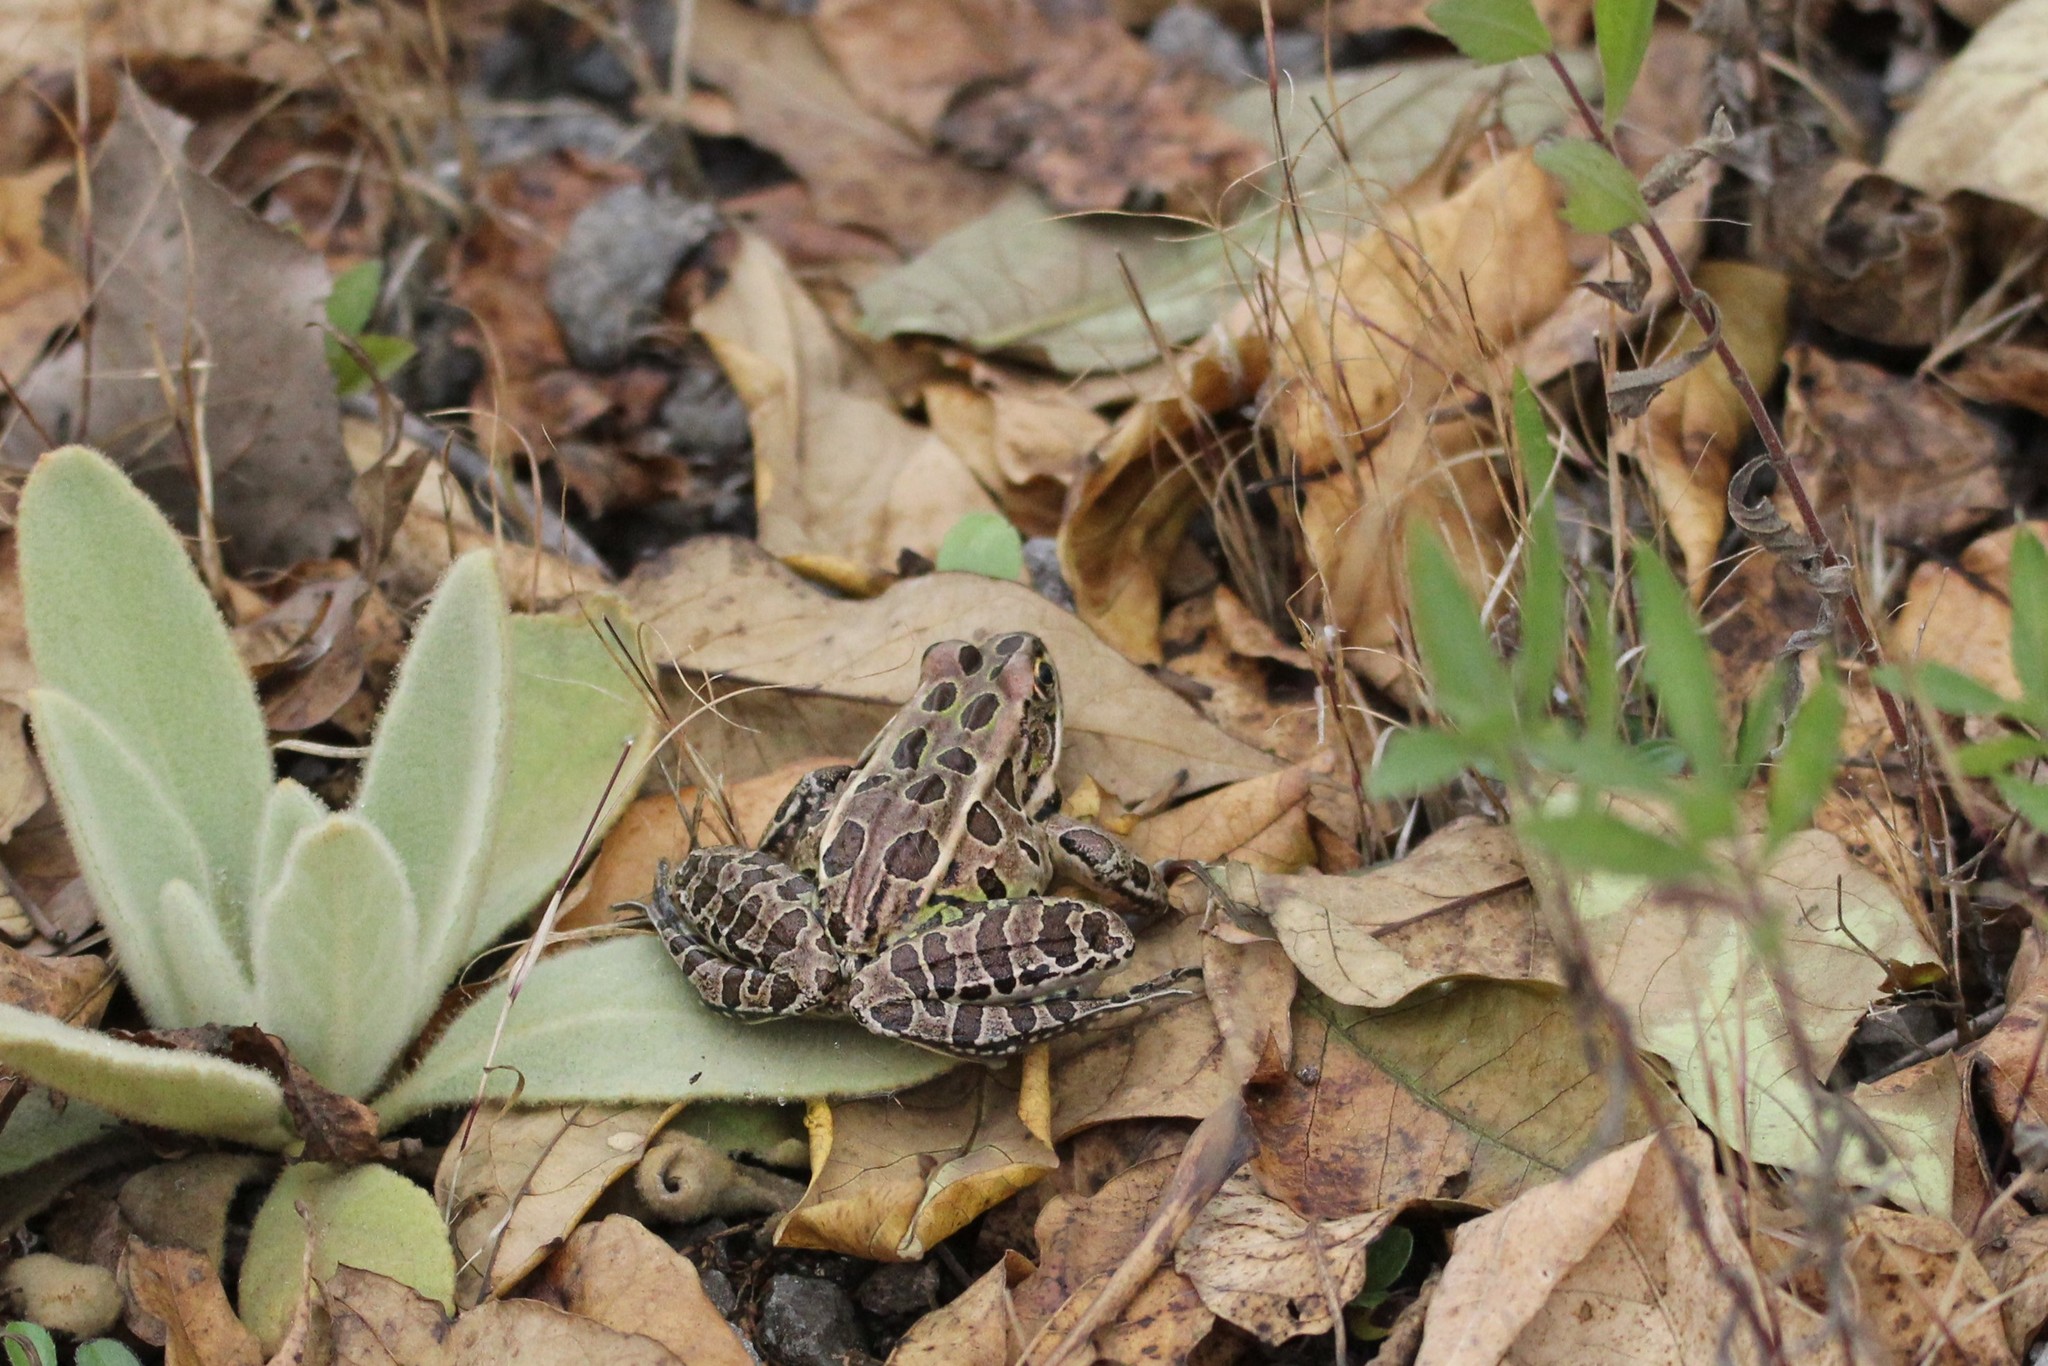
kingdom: Animalia
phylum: Chordata
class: Amphibia
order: Anura
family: Ranidae
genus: Lithobates
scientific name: Lithobates pipiens
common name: Northern leopard frog
